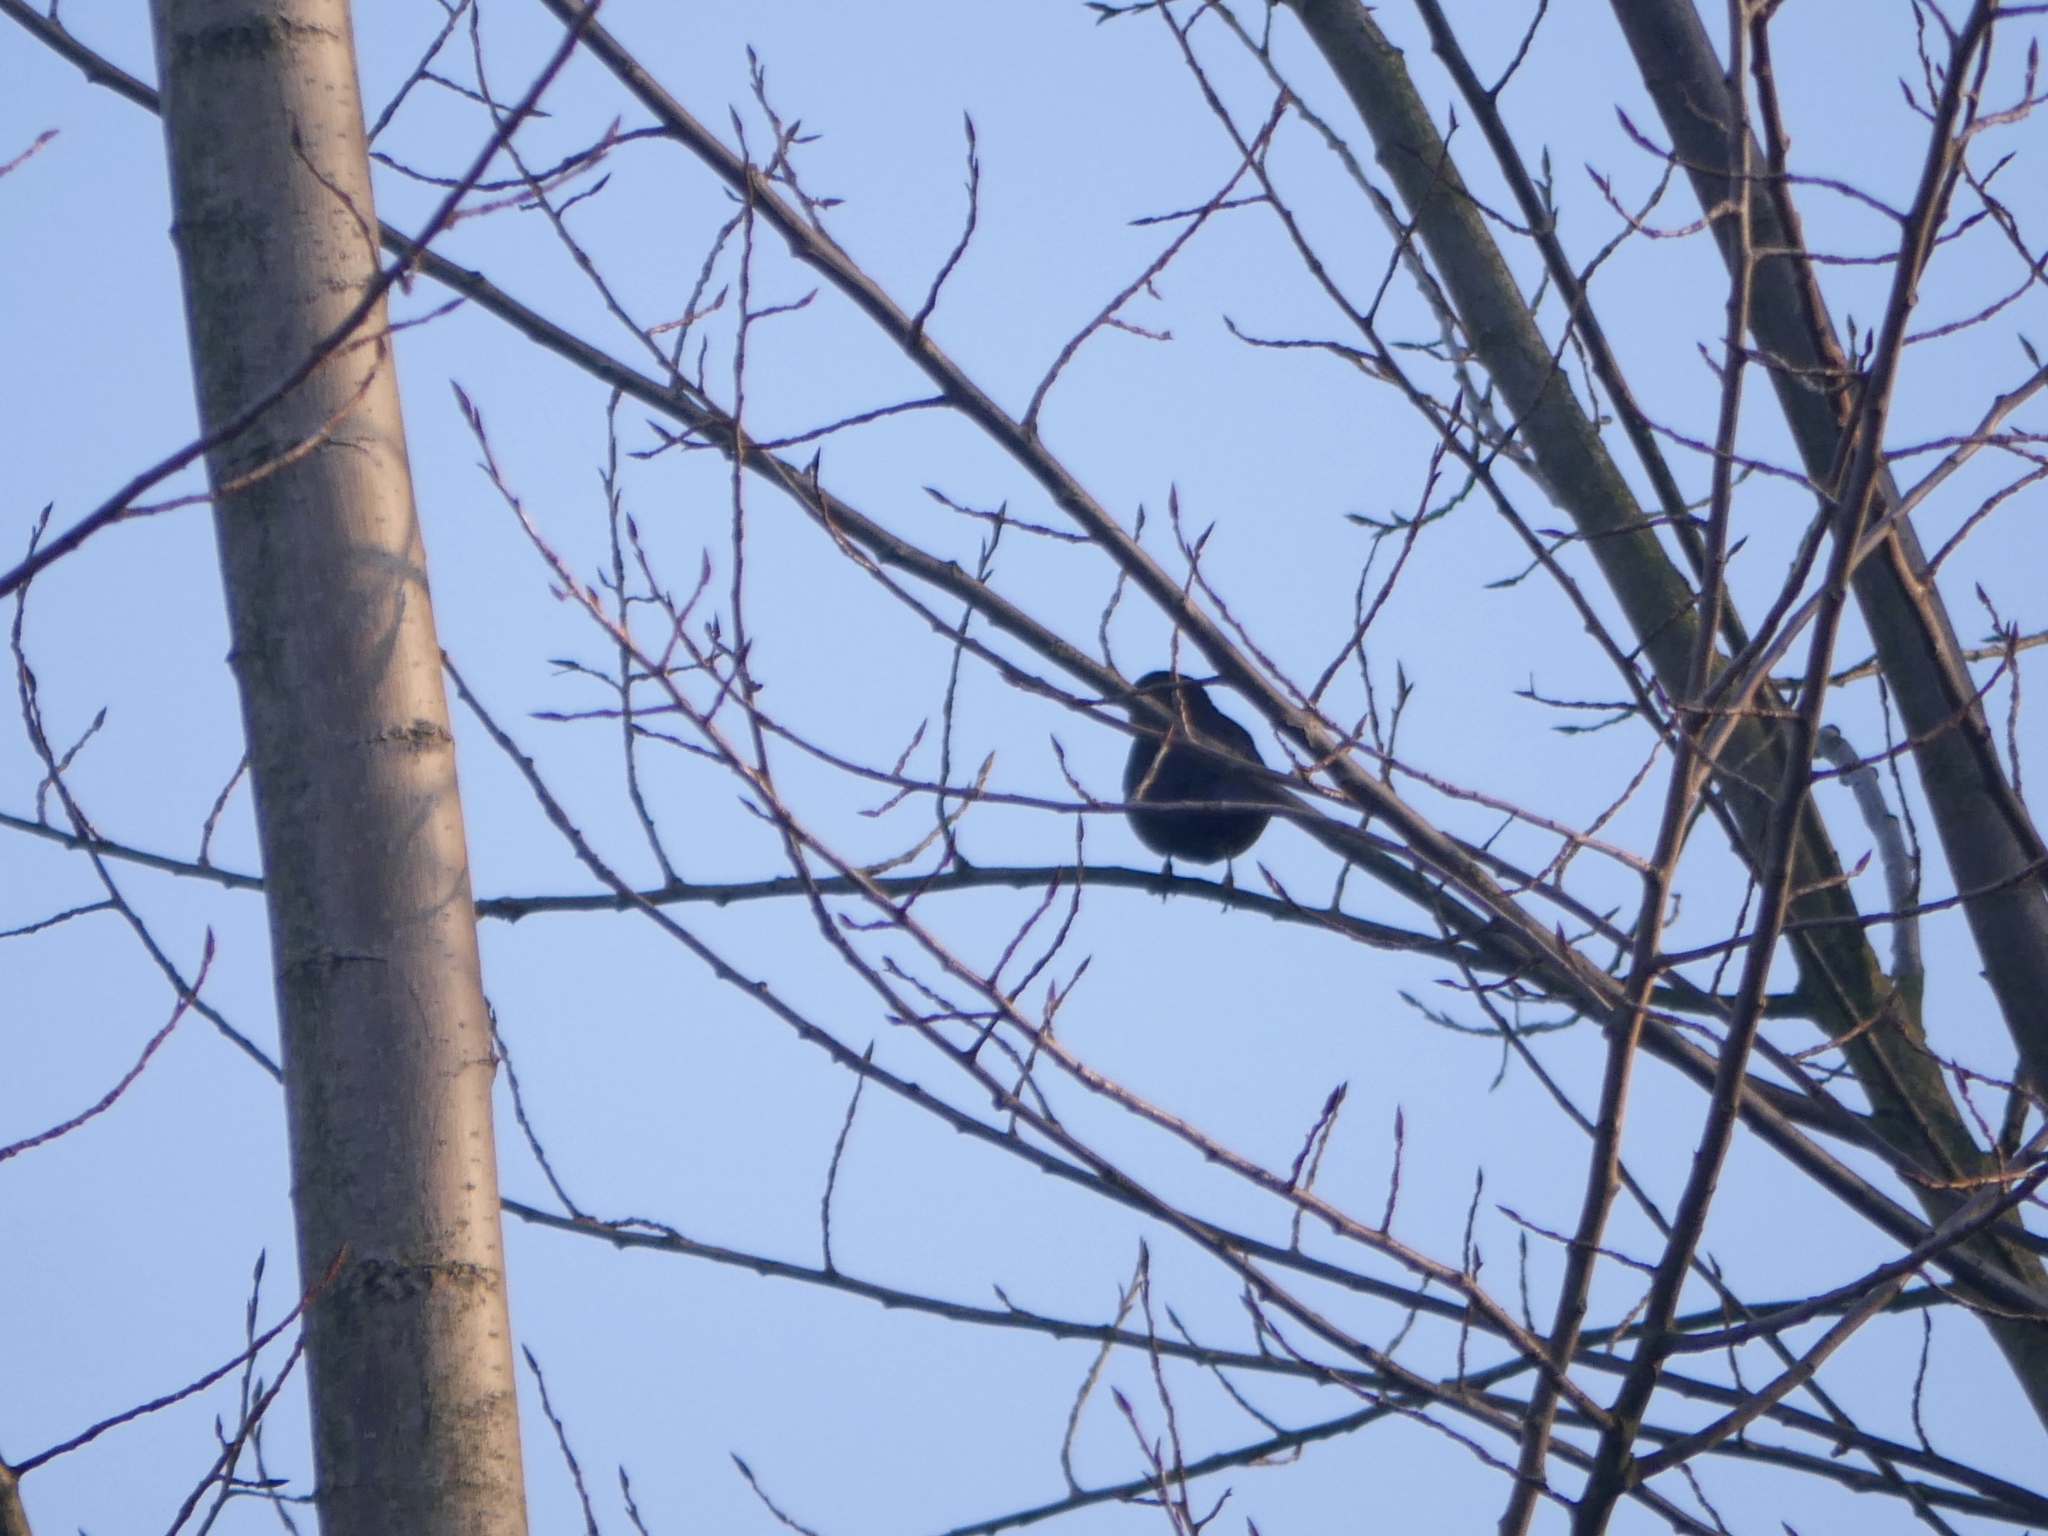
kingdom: Animalia
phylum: Chordata
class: Aves
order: Passeriformes
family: Turdidae
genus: Turdus
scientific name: Turdus merula
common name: Common blackbird
